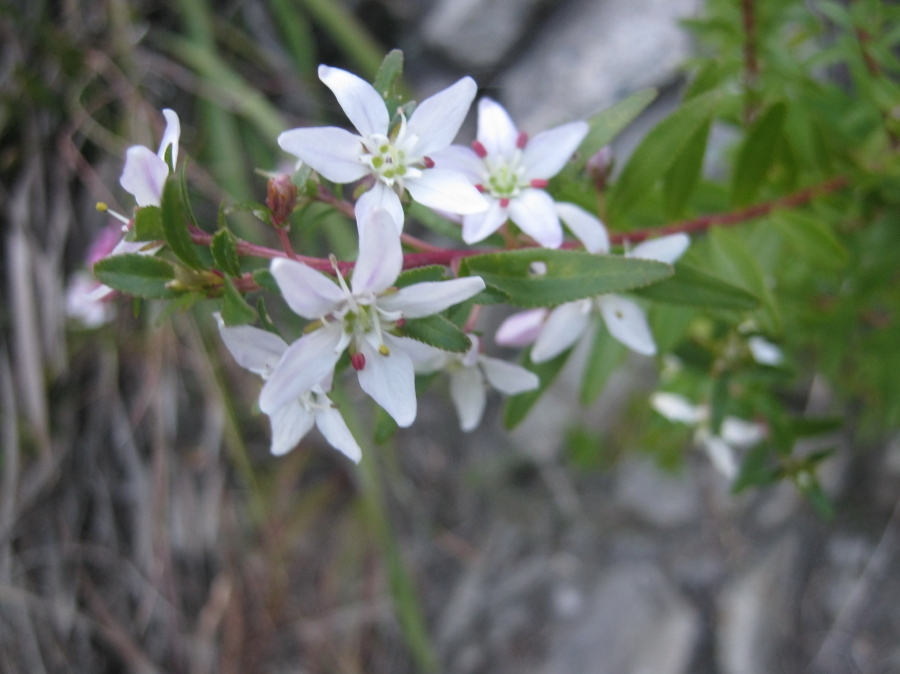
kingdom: Plantae
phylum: Tracheophyta
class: Magnoliopsida
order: Sapindales
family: Rutaceae
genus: Agathosma
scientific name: Agathosma crenulata
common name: Oval buchu
